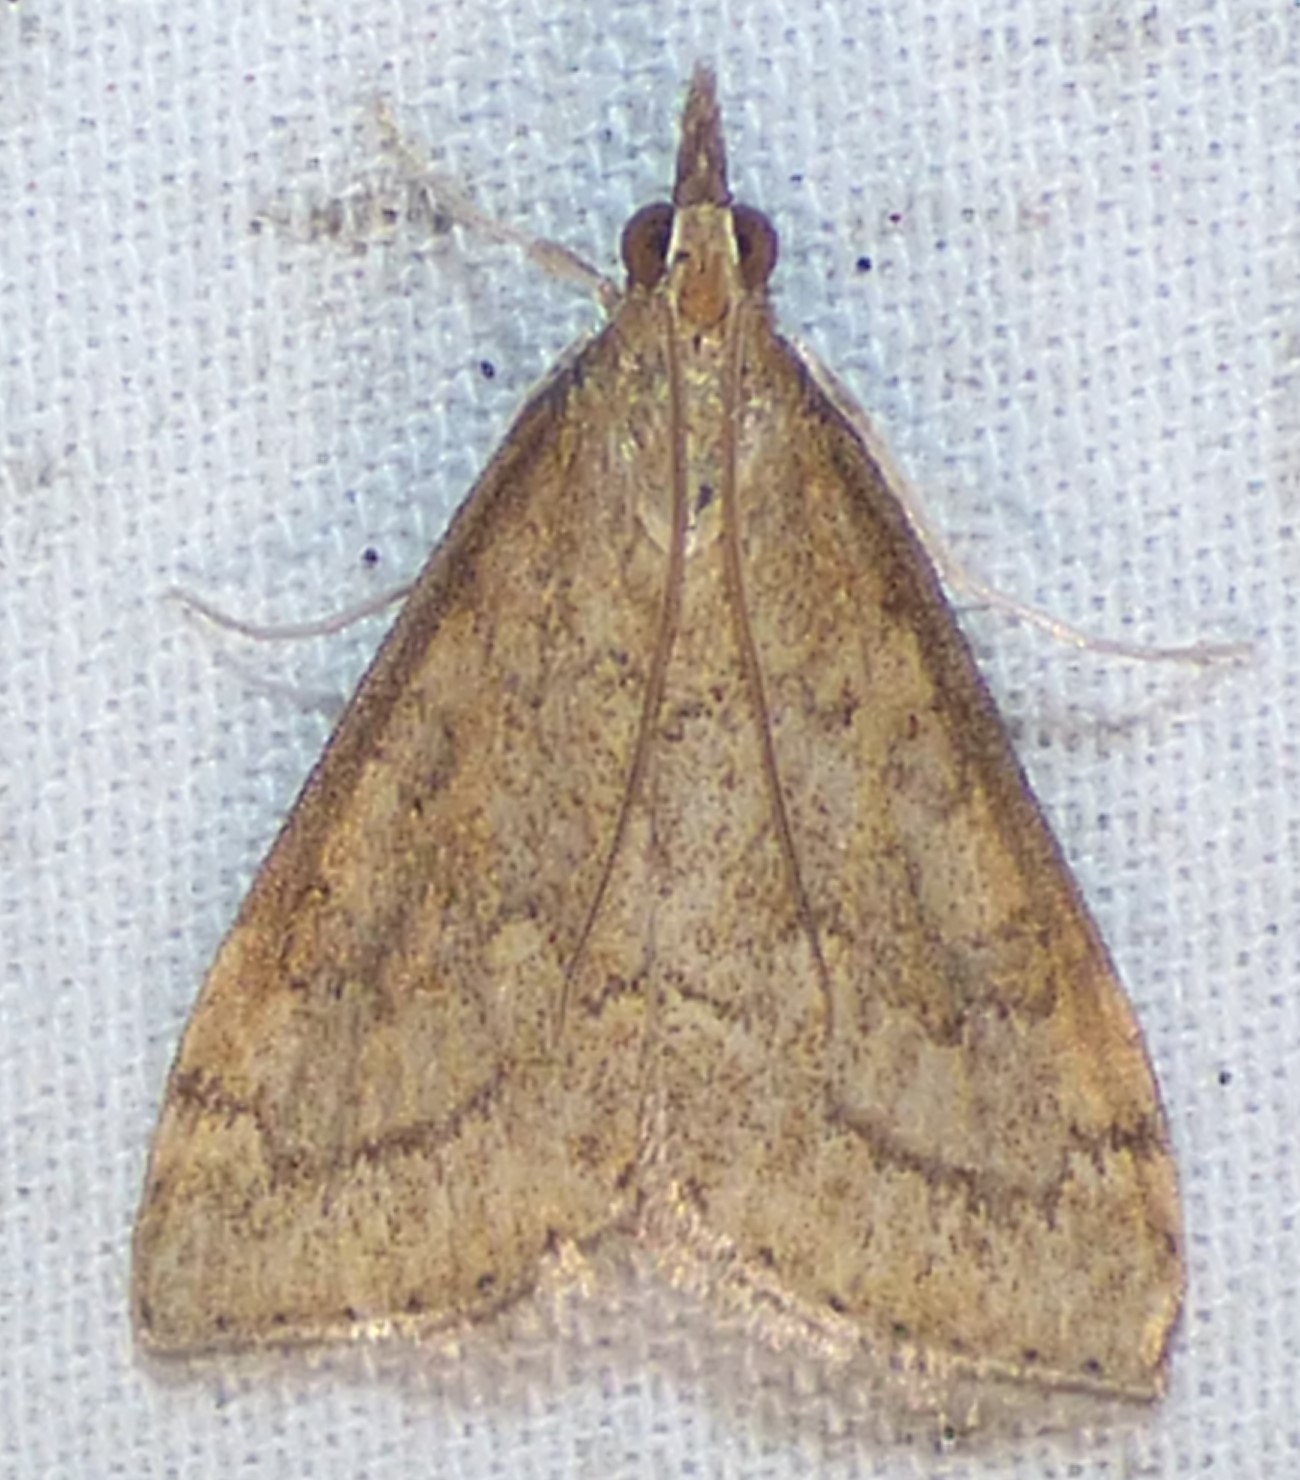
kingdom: Animalia
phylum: Arthropoda
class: Insecta
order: Lepidoptera
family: Crambidae
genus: Udea
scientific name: Udea rubigalis
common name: Celery leaftier moth
